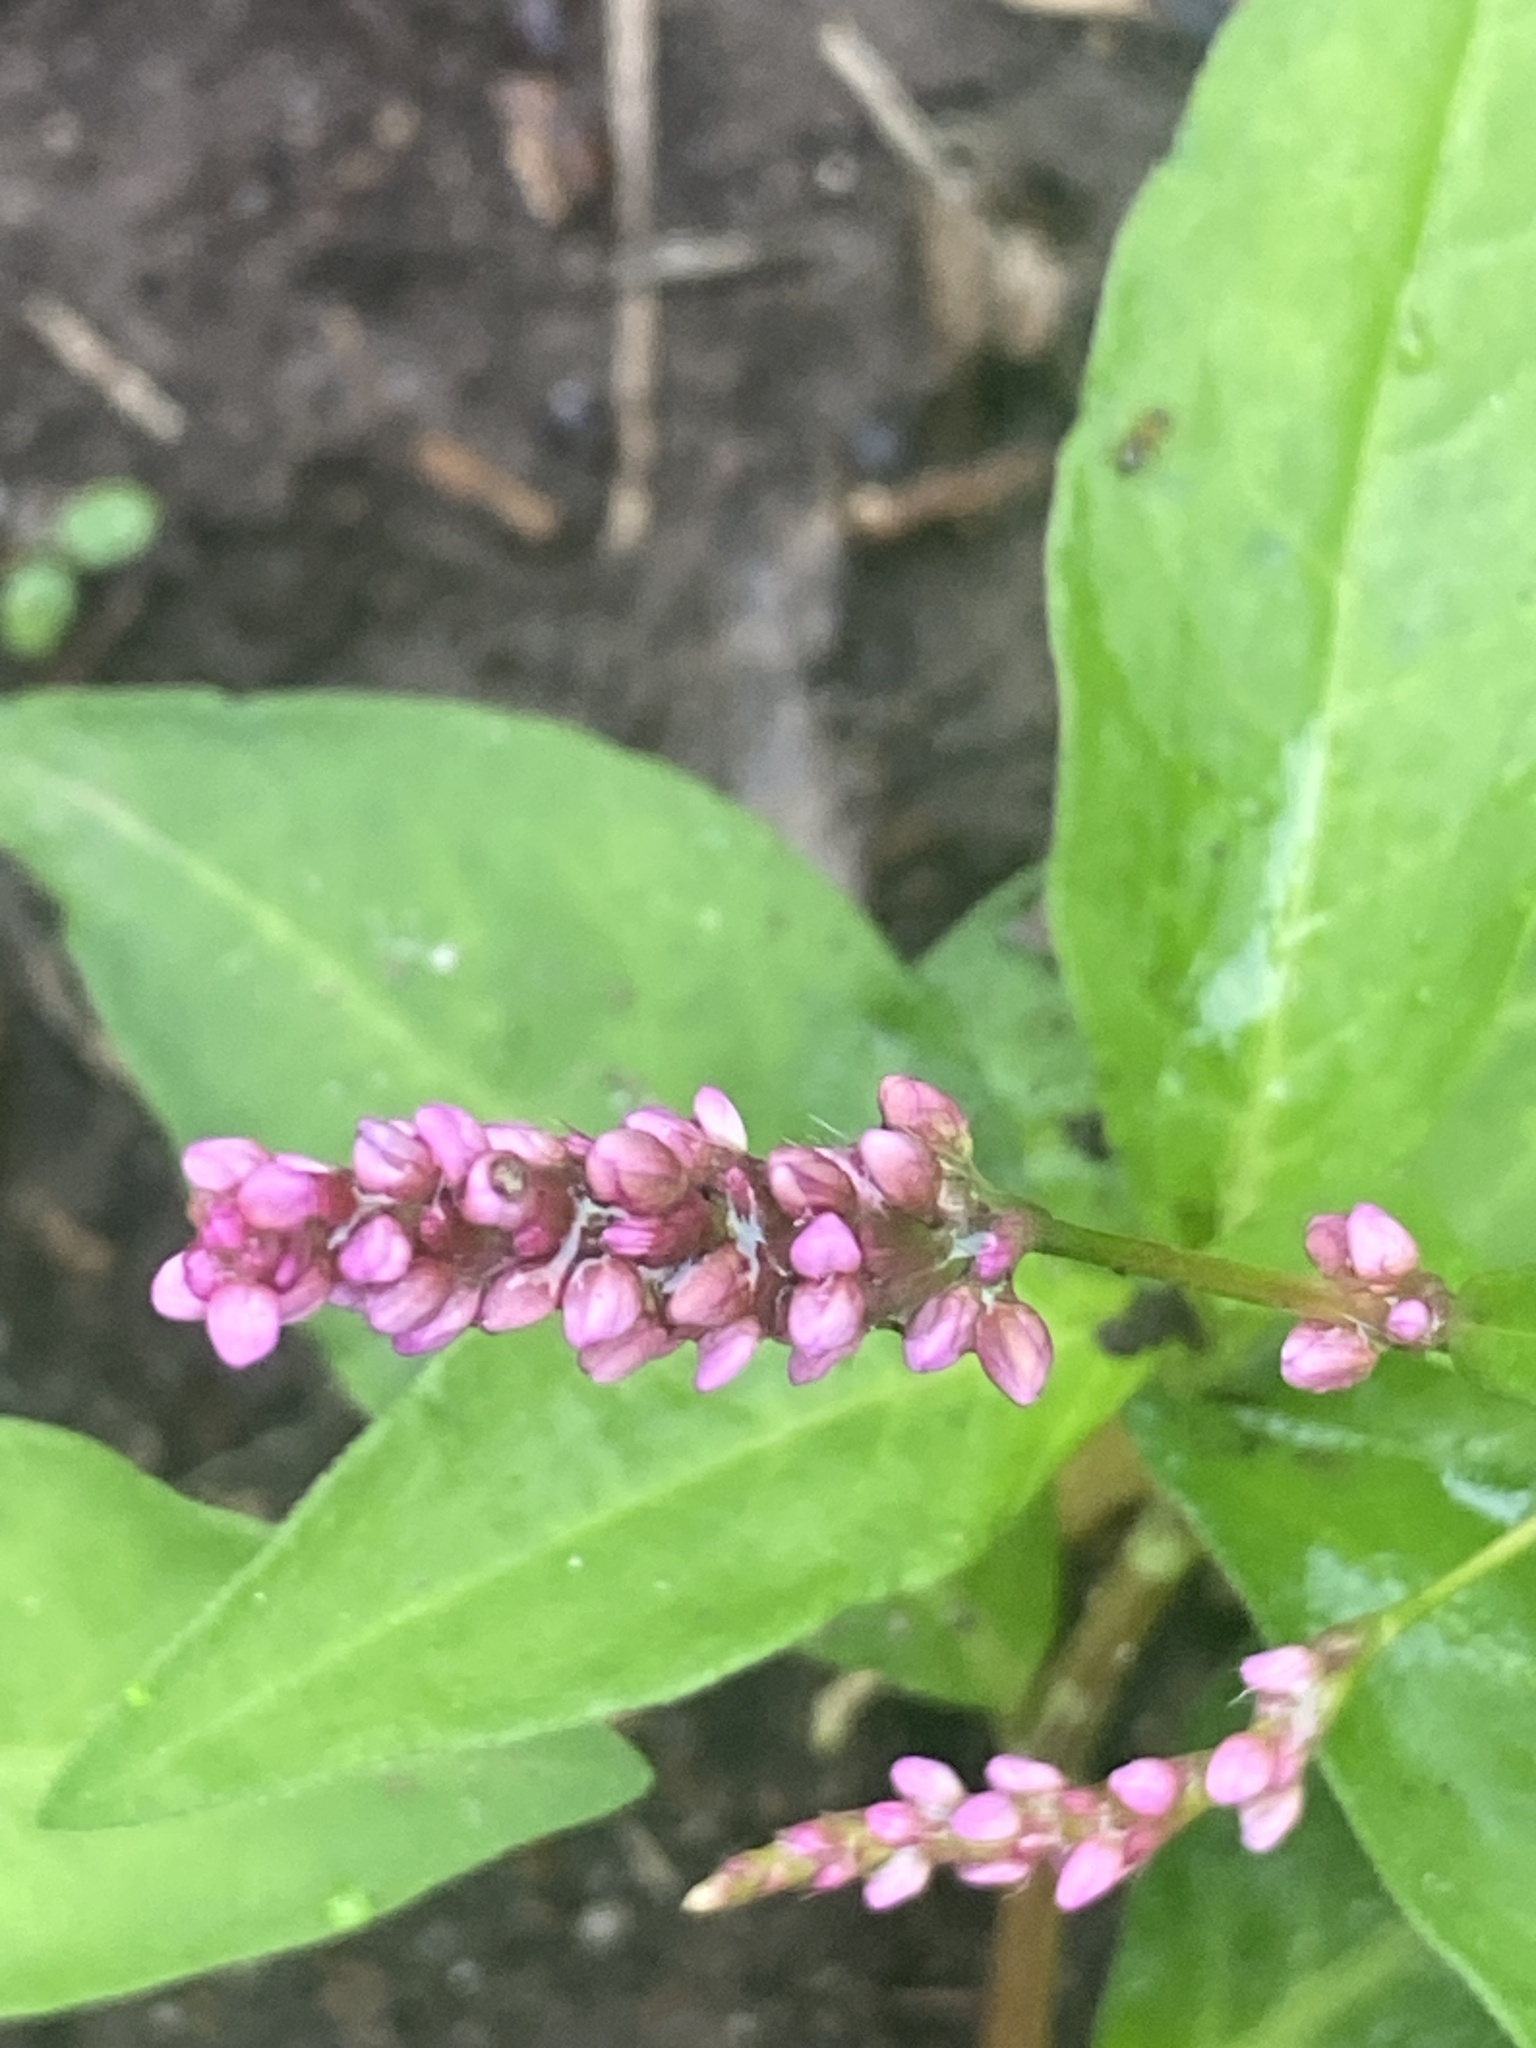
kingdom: Plantae
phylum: Tracheophyta
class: Magnoliopsida
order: Caryophyllales
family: Polygonaceae
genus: Persicaria
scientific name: Persicaria longiseta
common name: Bristly lady's-thumb
